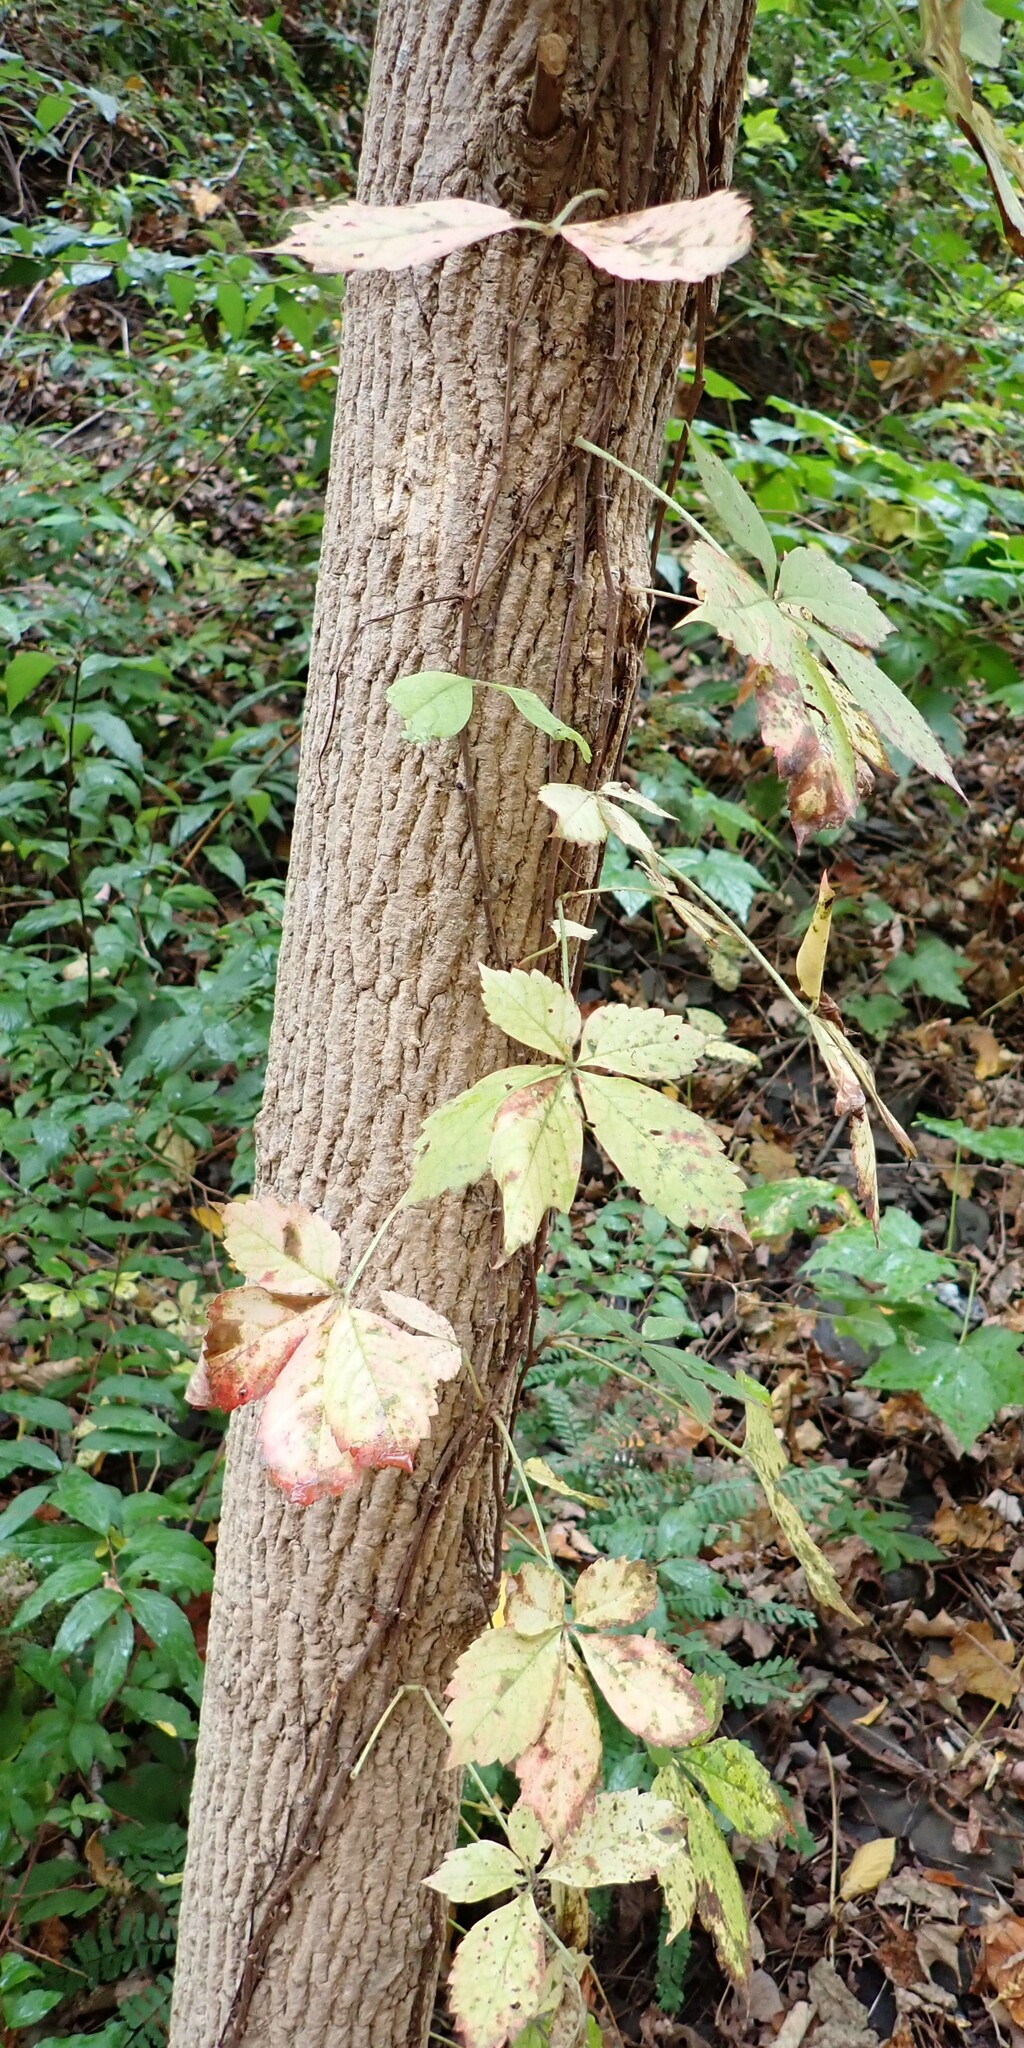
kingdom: Plantae
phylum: Tracheophyta
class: Magnoliopsida
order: Vitales
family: Vitaceae
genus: Parthenocissus
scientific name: Parthenocissus quinquefolia
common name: Virginia-creeper
